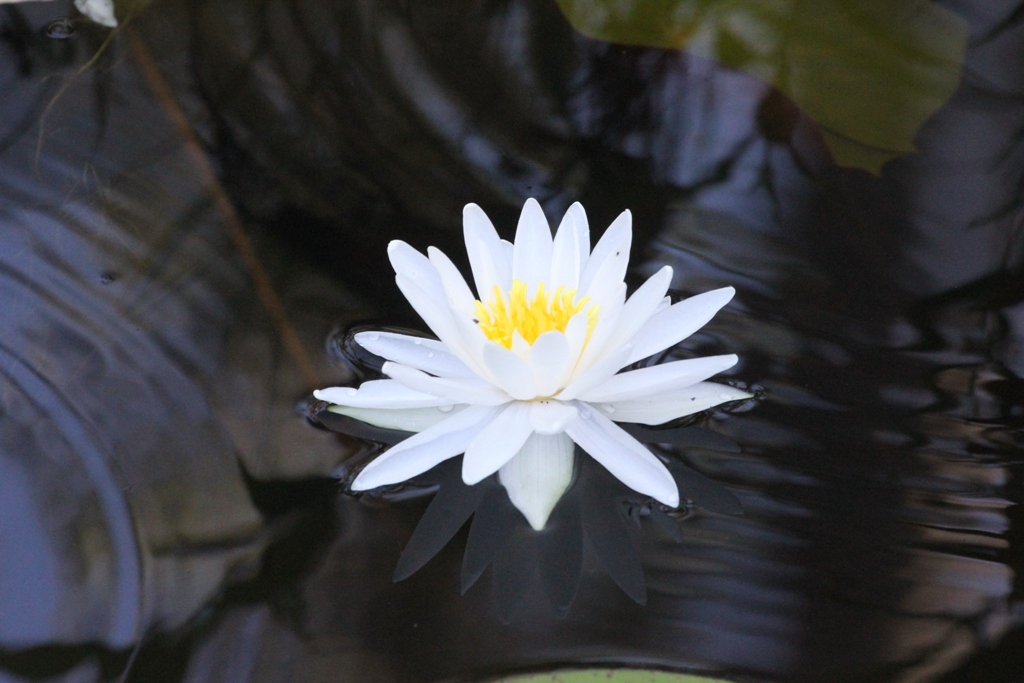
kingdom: Plantae
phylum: Tracheophyta
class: Magnoliopsida
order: Nymphaeales
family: Nymphaeaceae
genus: Nymphaea
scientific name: Nymphaea odorata
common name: Fragrant water-lily
